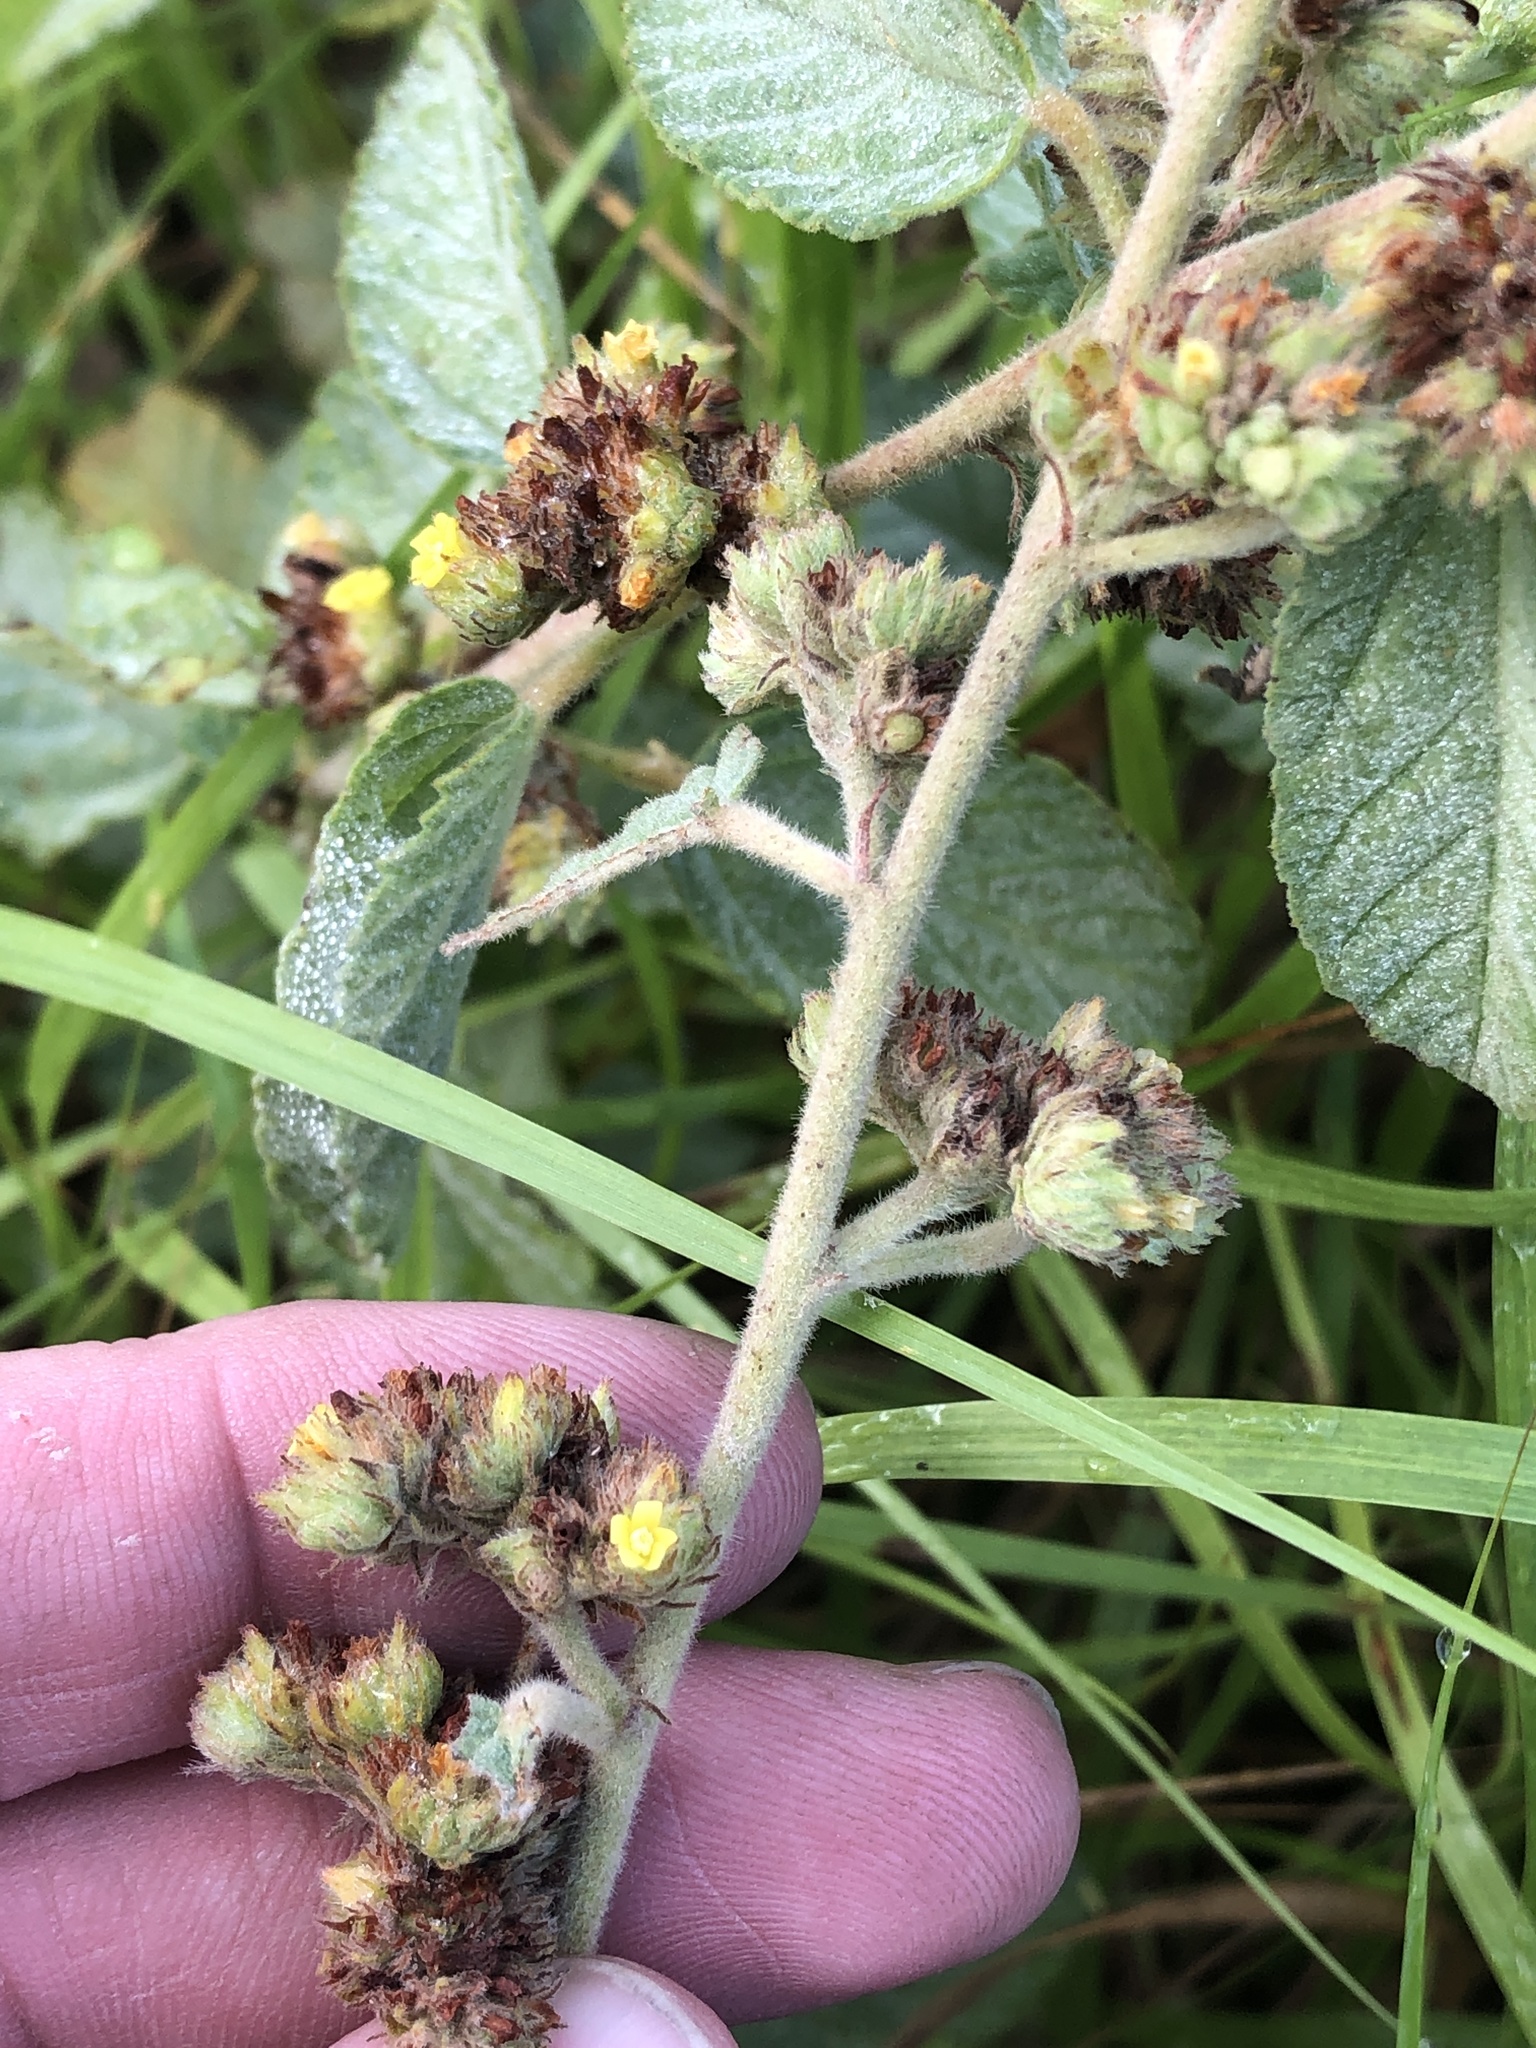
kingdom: Plantae
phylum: Tracheophyta
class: Magnoliopsida
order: Malvales
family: Malvaceae
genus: Waltheria
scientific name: Waltheria indica
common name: Leather-coat
